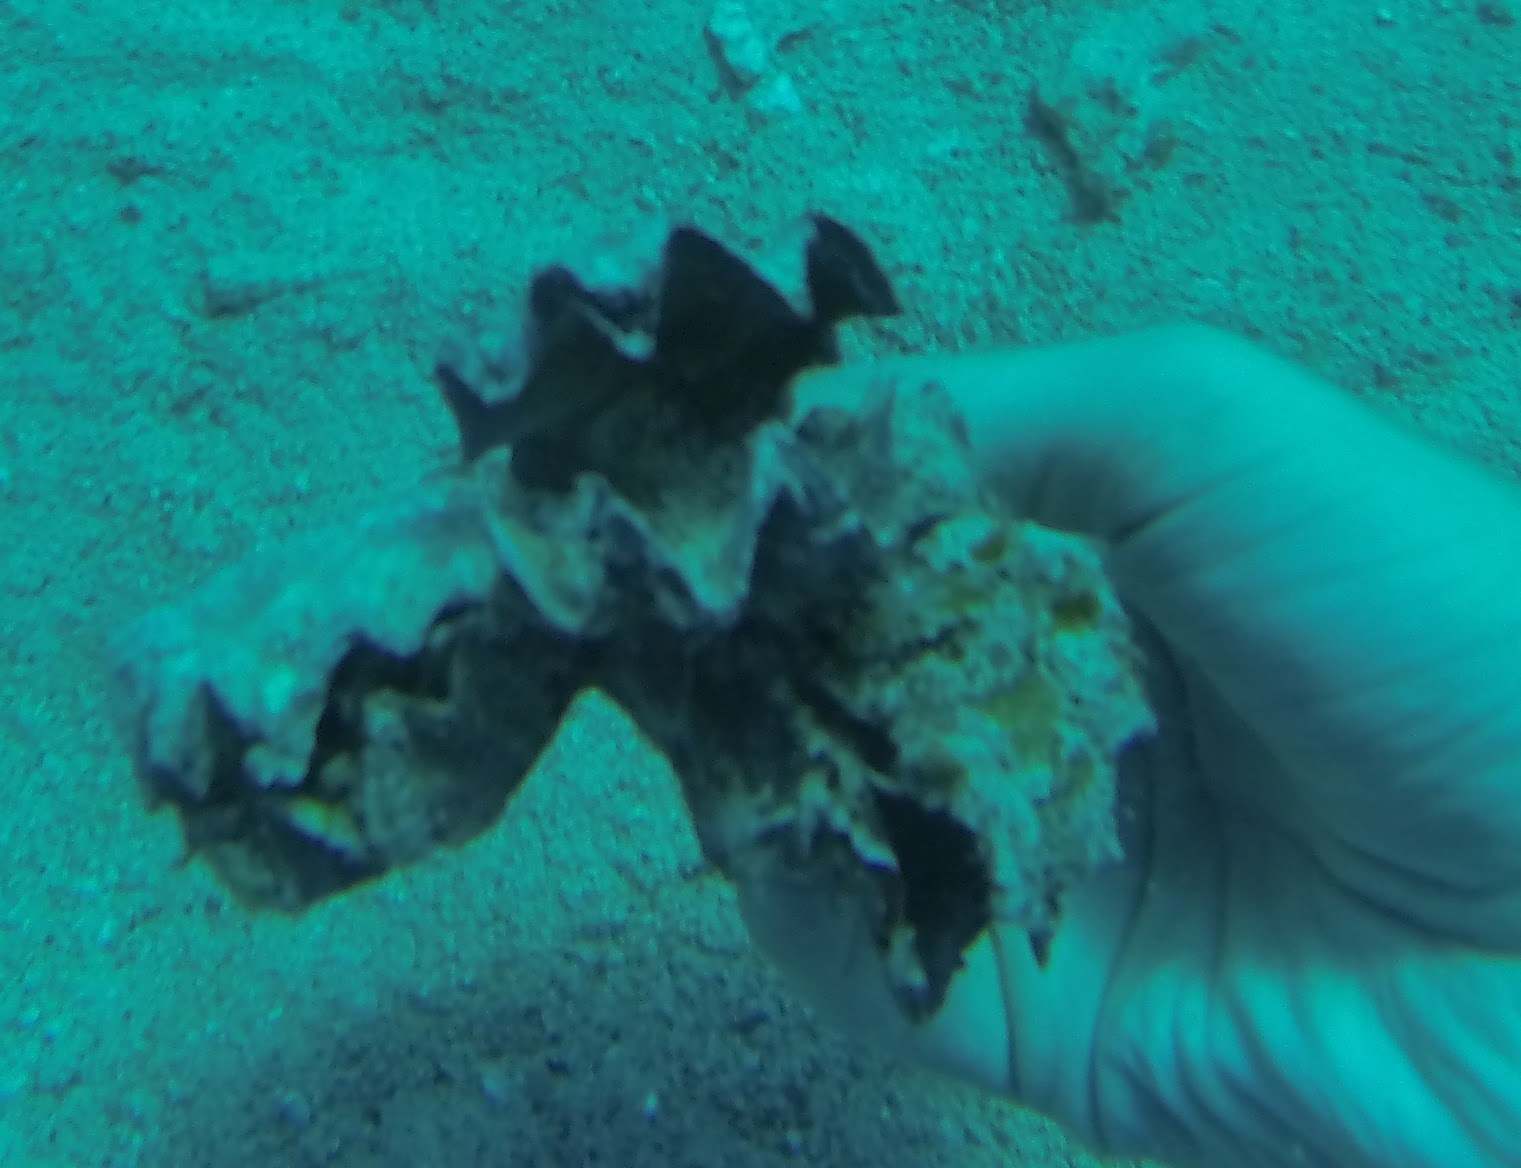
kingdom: Animalia
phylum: Mollusca
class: Bivalvia
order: Ostreida
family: Ostreidae
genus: Lopha
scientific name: Lopha cristagalli
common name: Cock's-comb oyster
